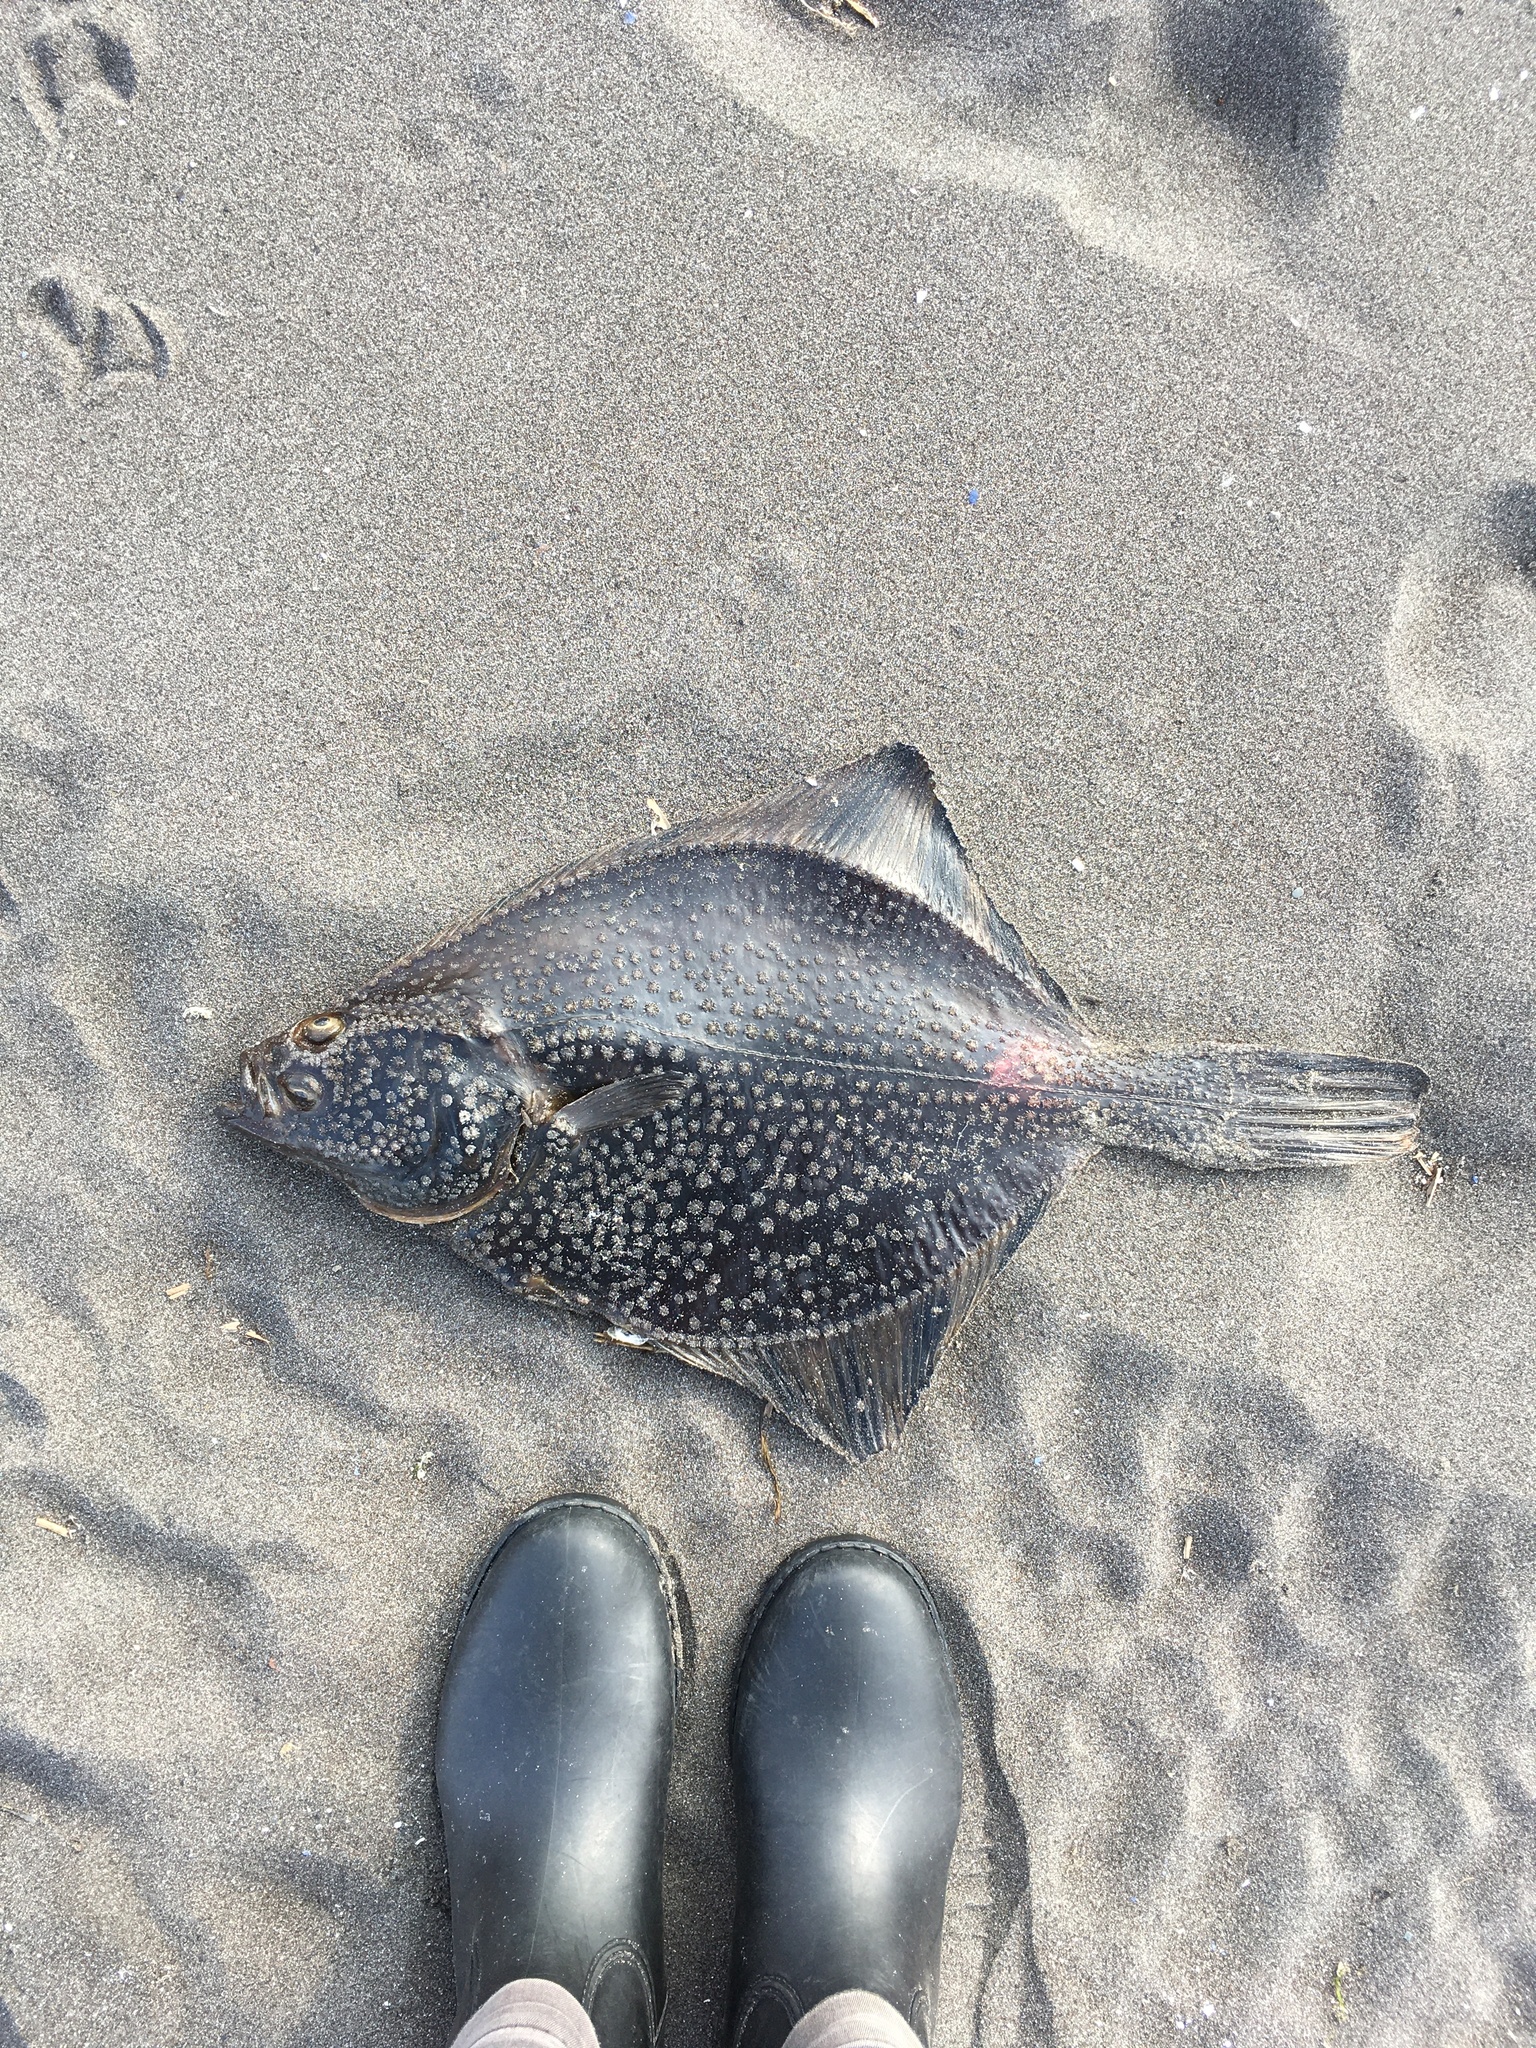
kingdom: Animalia
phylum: Chordata
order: Pleuronectiformes
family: Pleuronectidae
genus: Platichthys
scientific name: Platichthys stellatus
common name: Starry flounder
